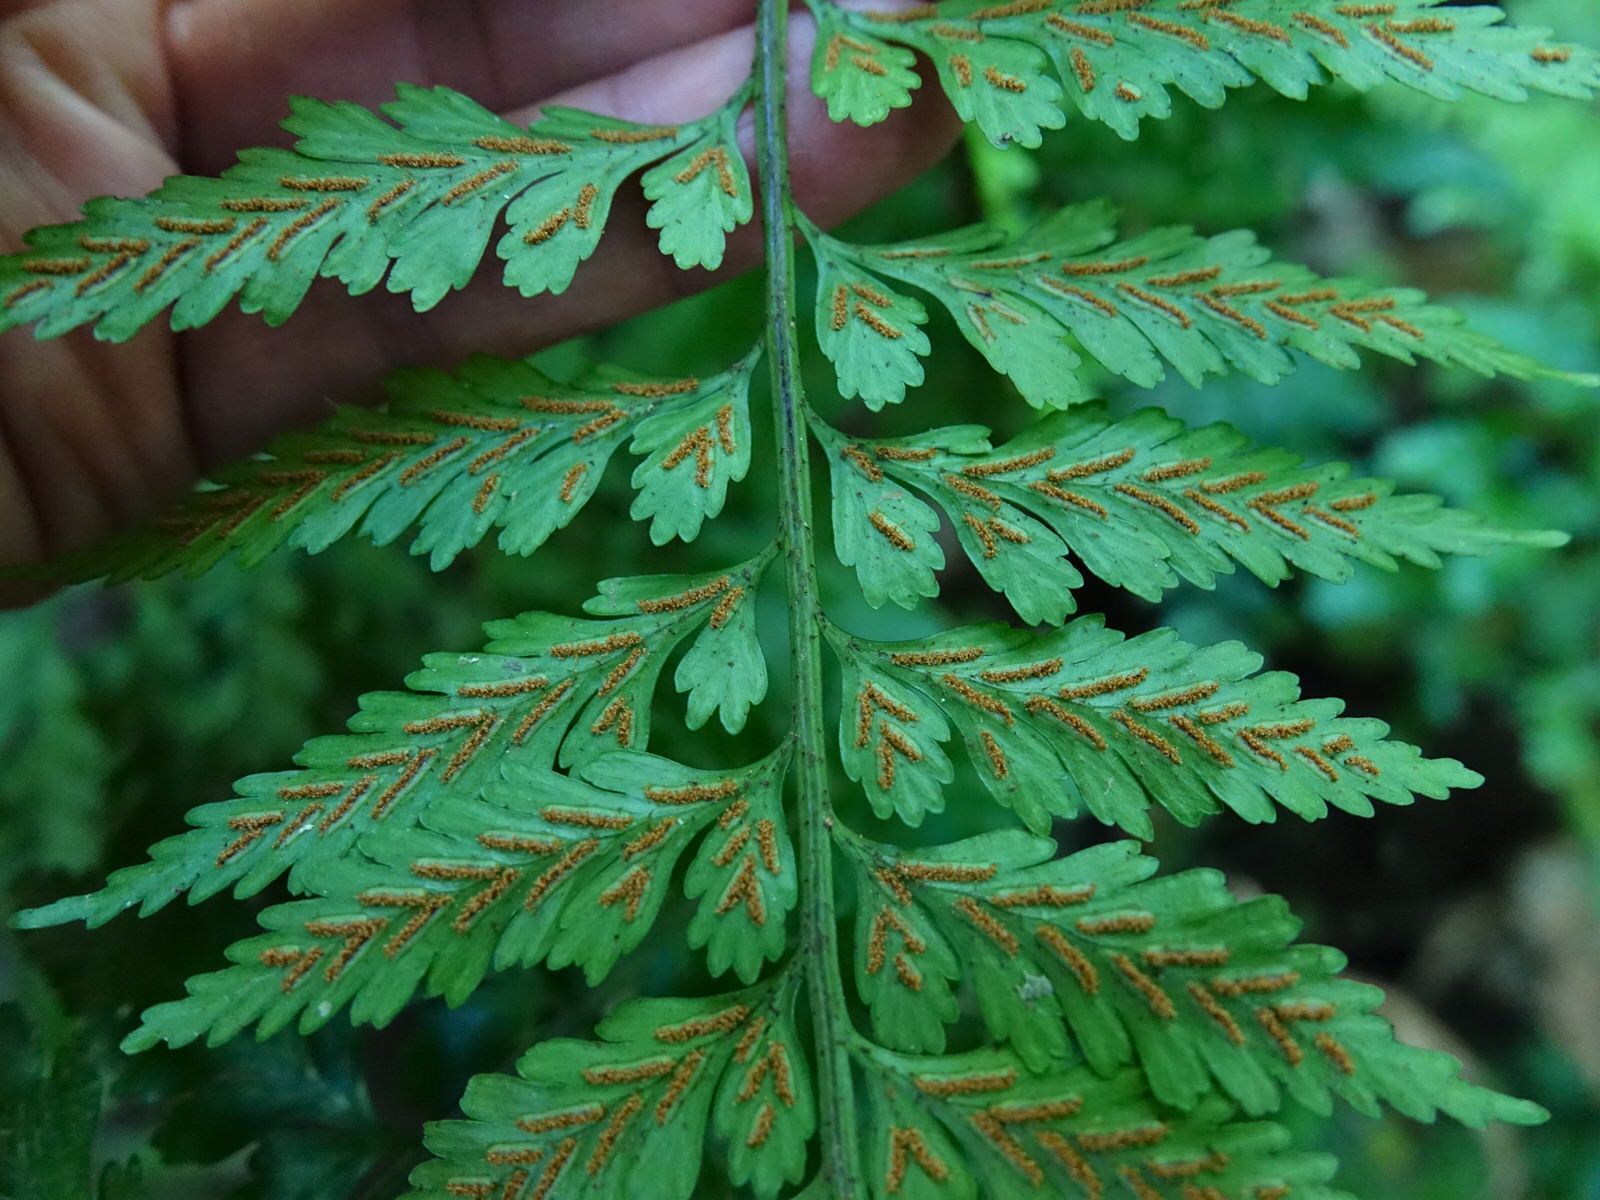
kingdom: Plantae
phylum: Tracheophyta
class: Polypodiopsida
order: Polypodiales
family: Aspleniaceae
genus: Asplenium
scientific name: Asplenium lamprophyllum
